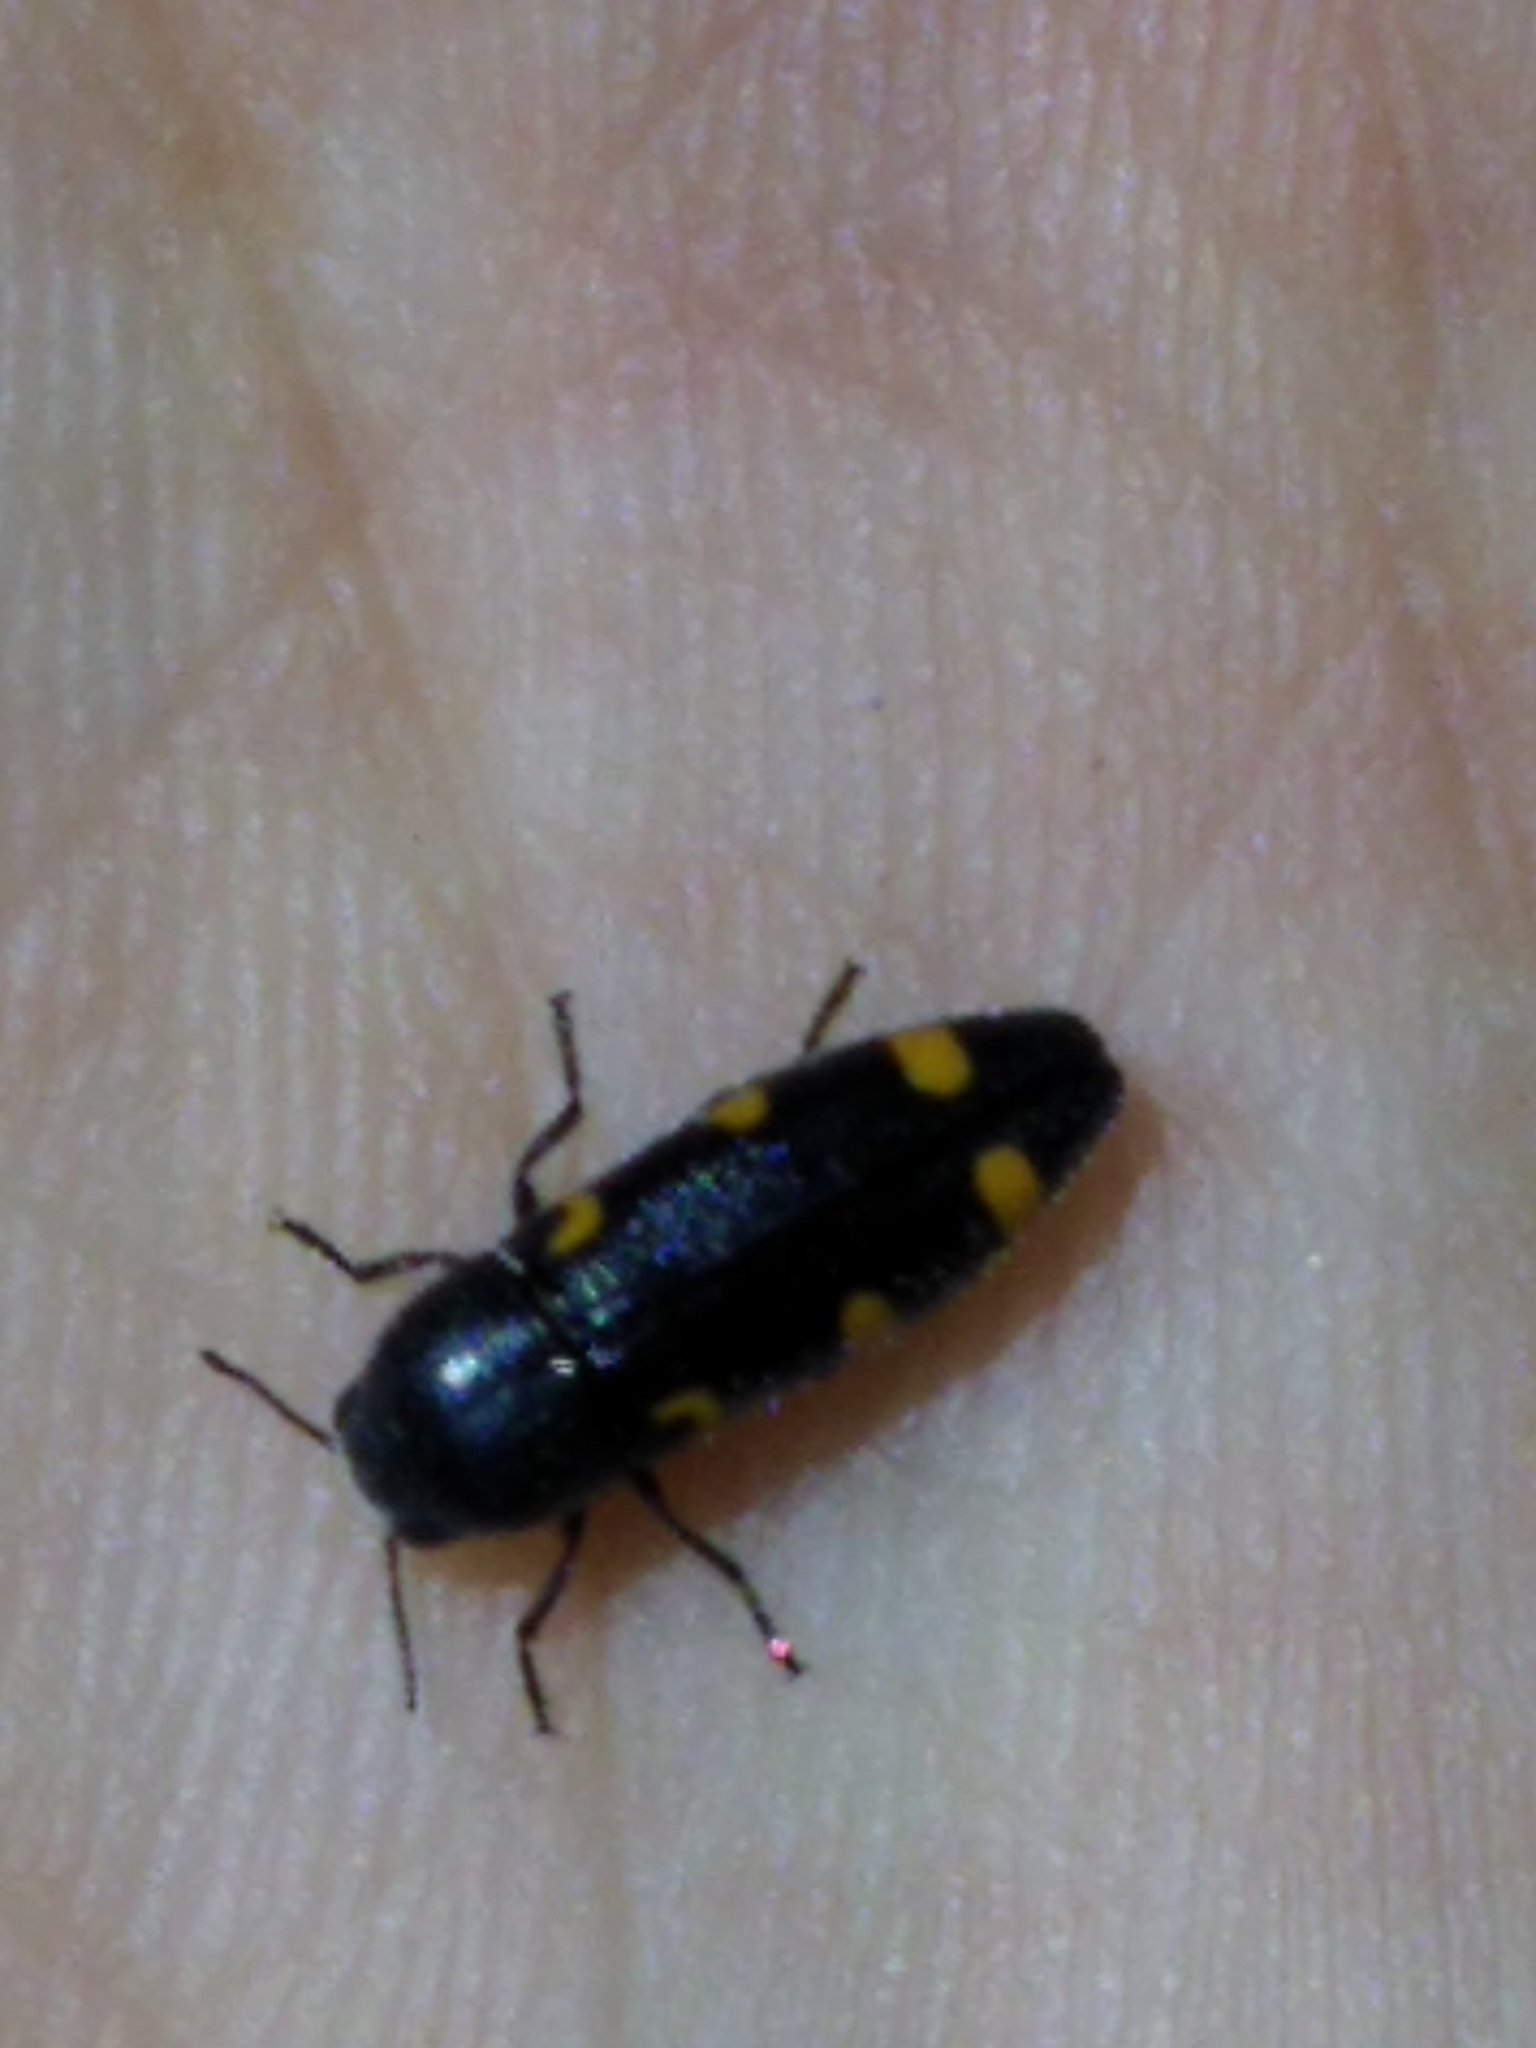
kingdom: Animalia
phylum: Arthropoda
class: Insecta
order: Coleoptera
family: Buprestidae
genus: Ptosima
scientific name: Ptosima undecimmaculata
